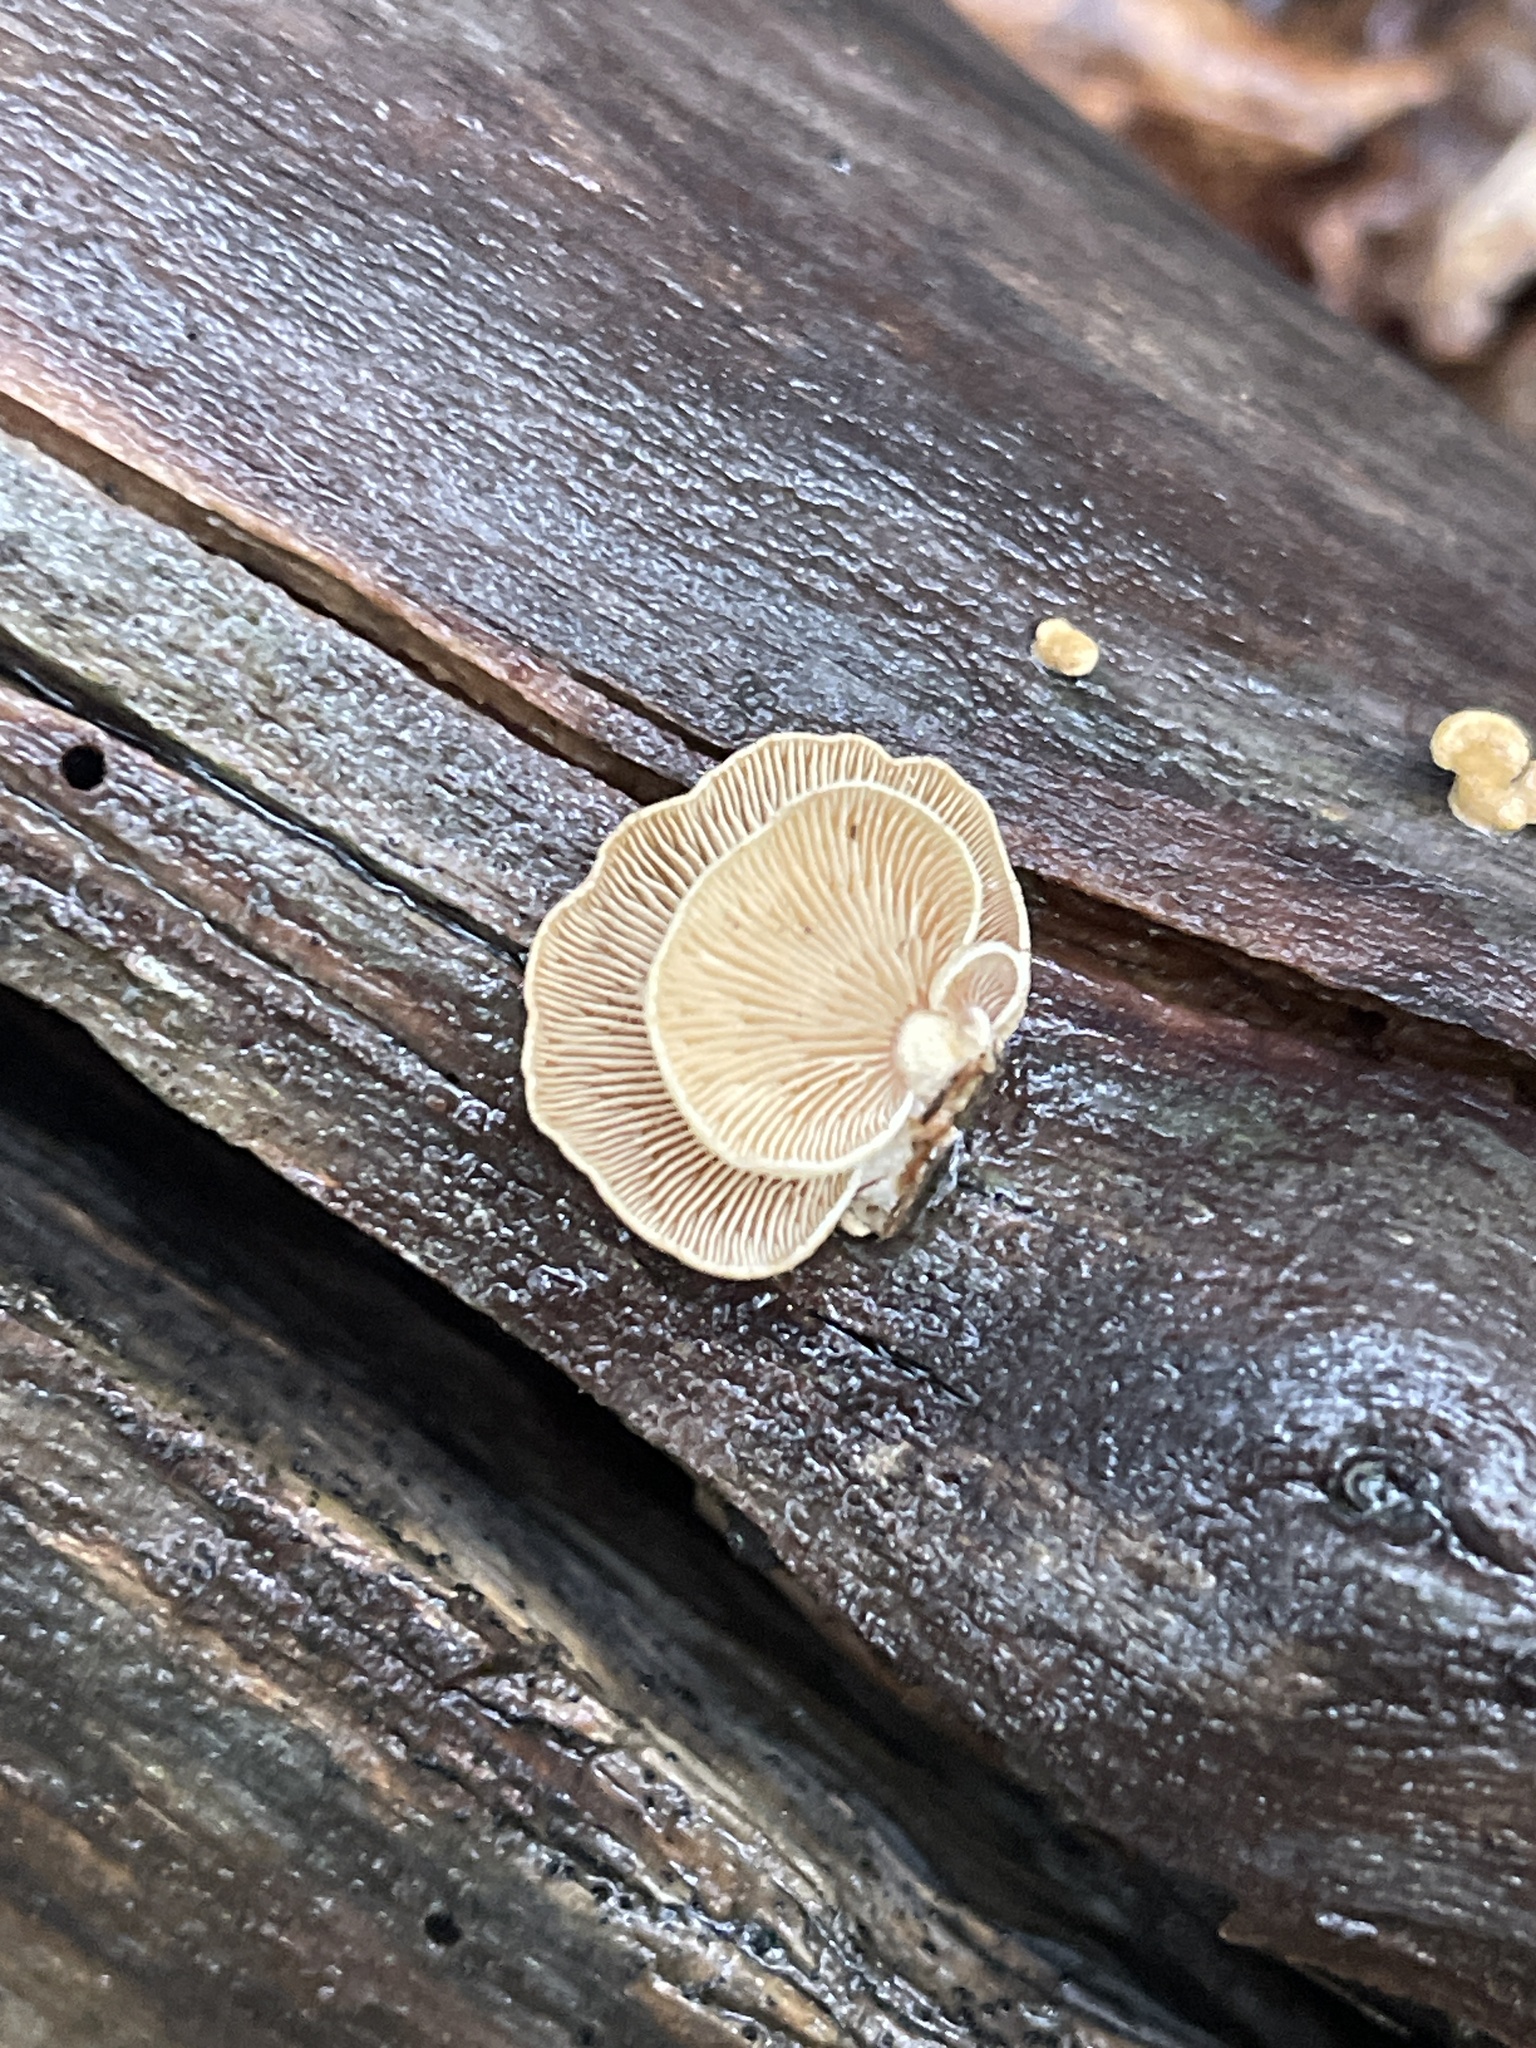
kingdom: Fungi
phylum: Basidiomycota
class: Agaricomycetes
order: Agaricales
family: Mycenaceae
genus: Panellus
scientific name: Panellus stipticus
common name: Bitter oysterling
